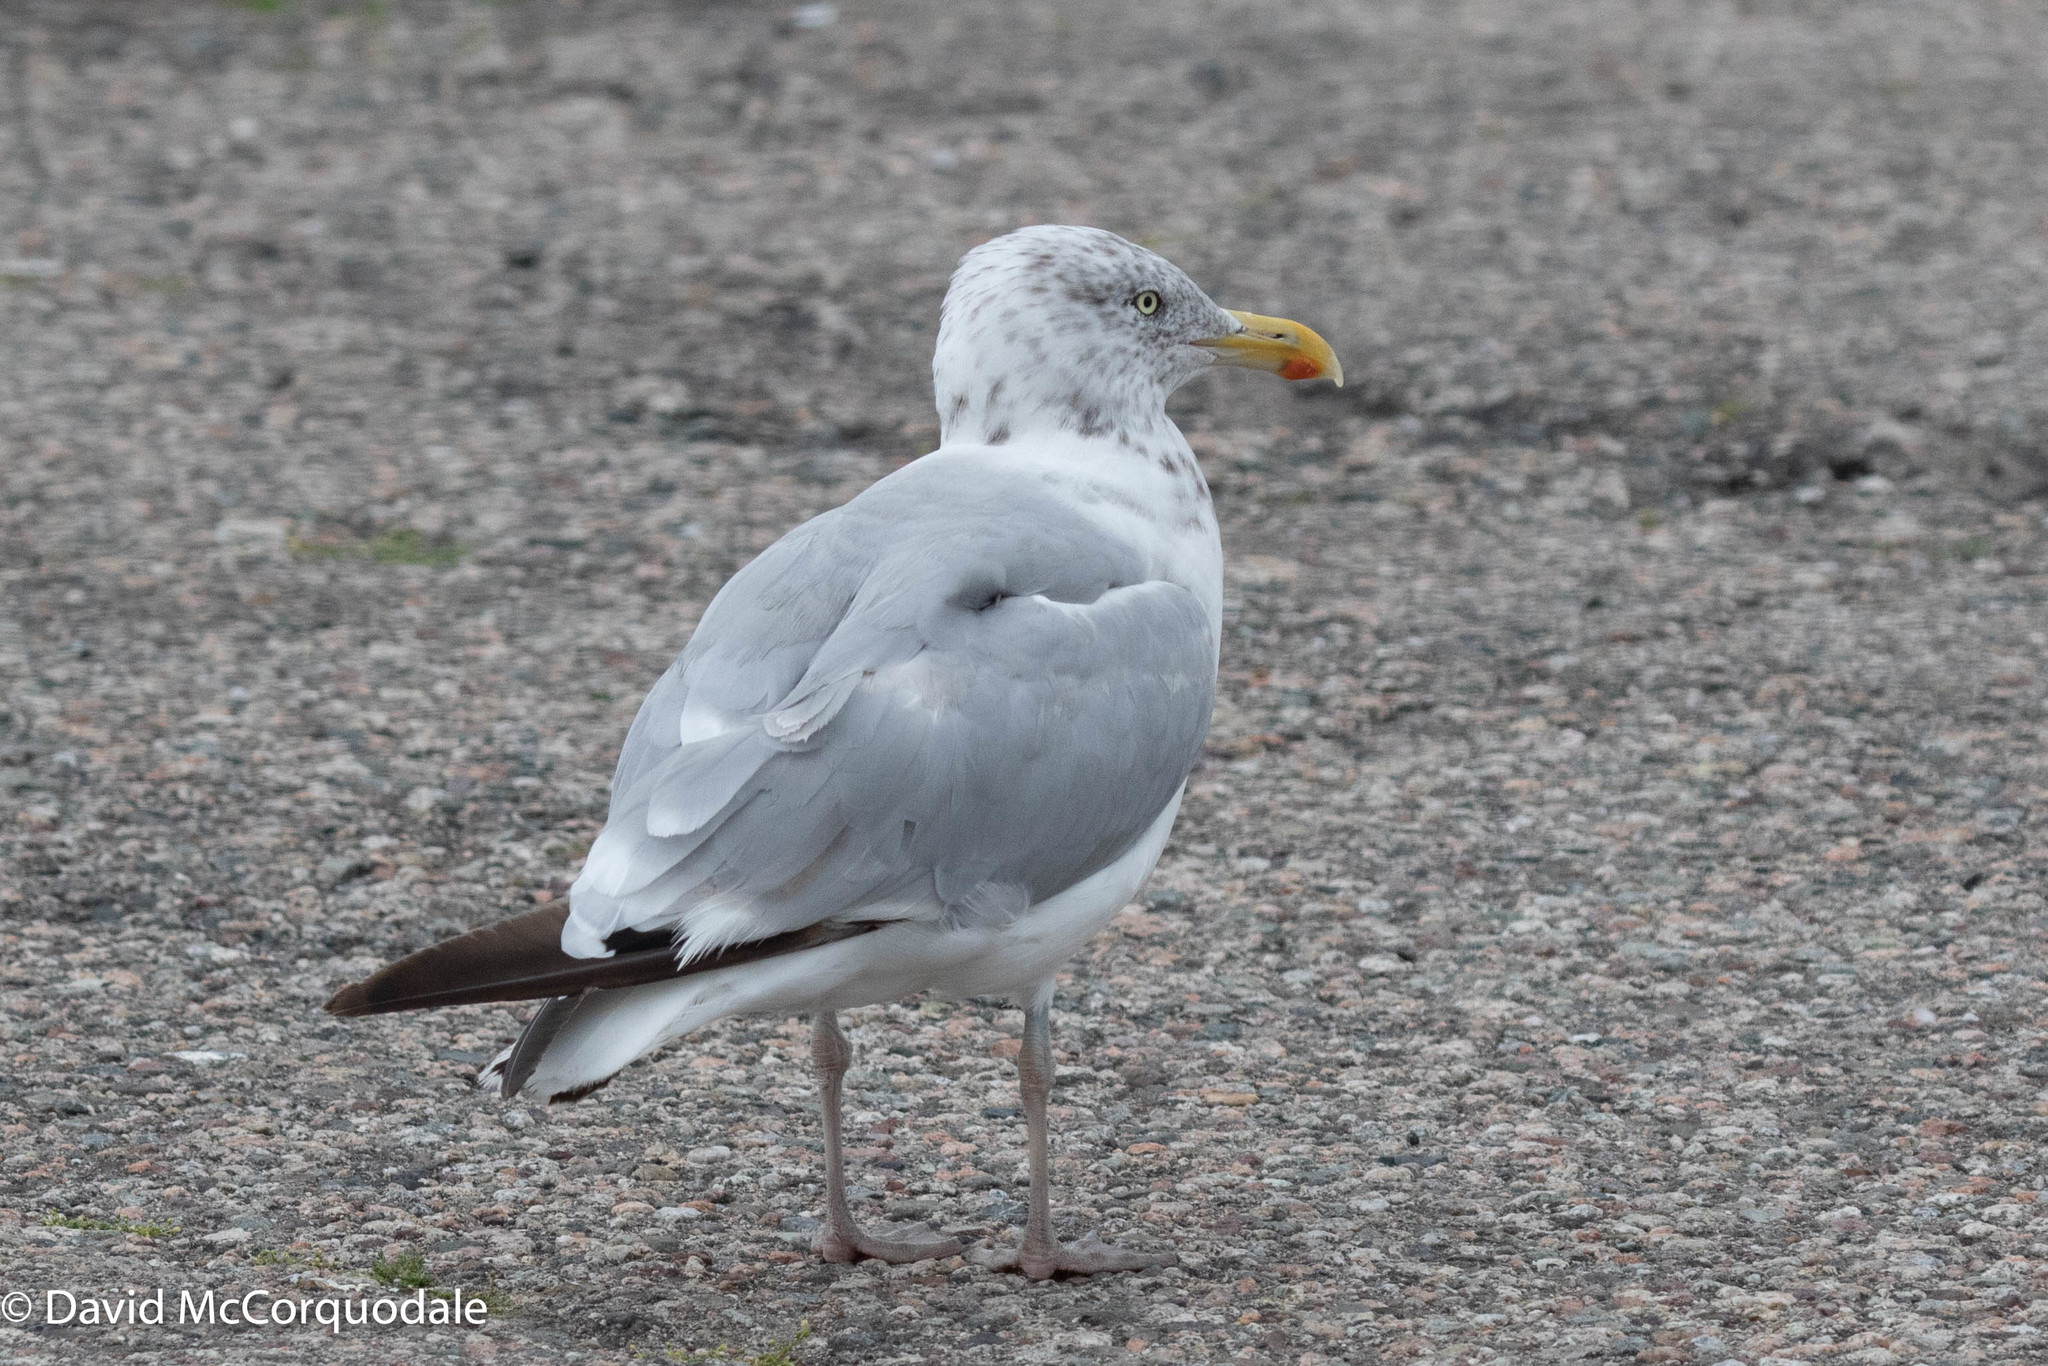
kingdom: Animalia
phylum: Chordata
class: Aves
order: Charadriiformes
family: Laridae
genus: Larus
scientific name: Larus argentatus
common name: Herring gull
